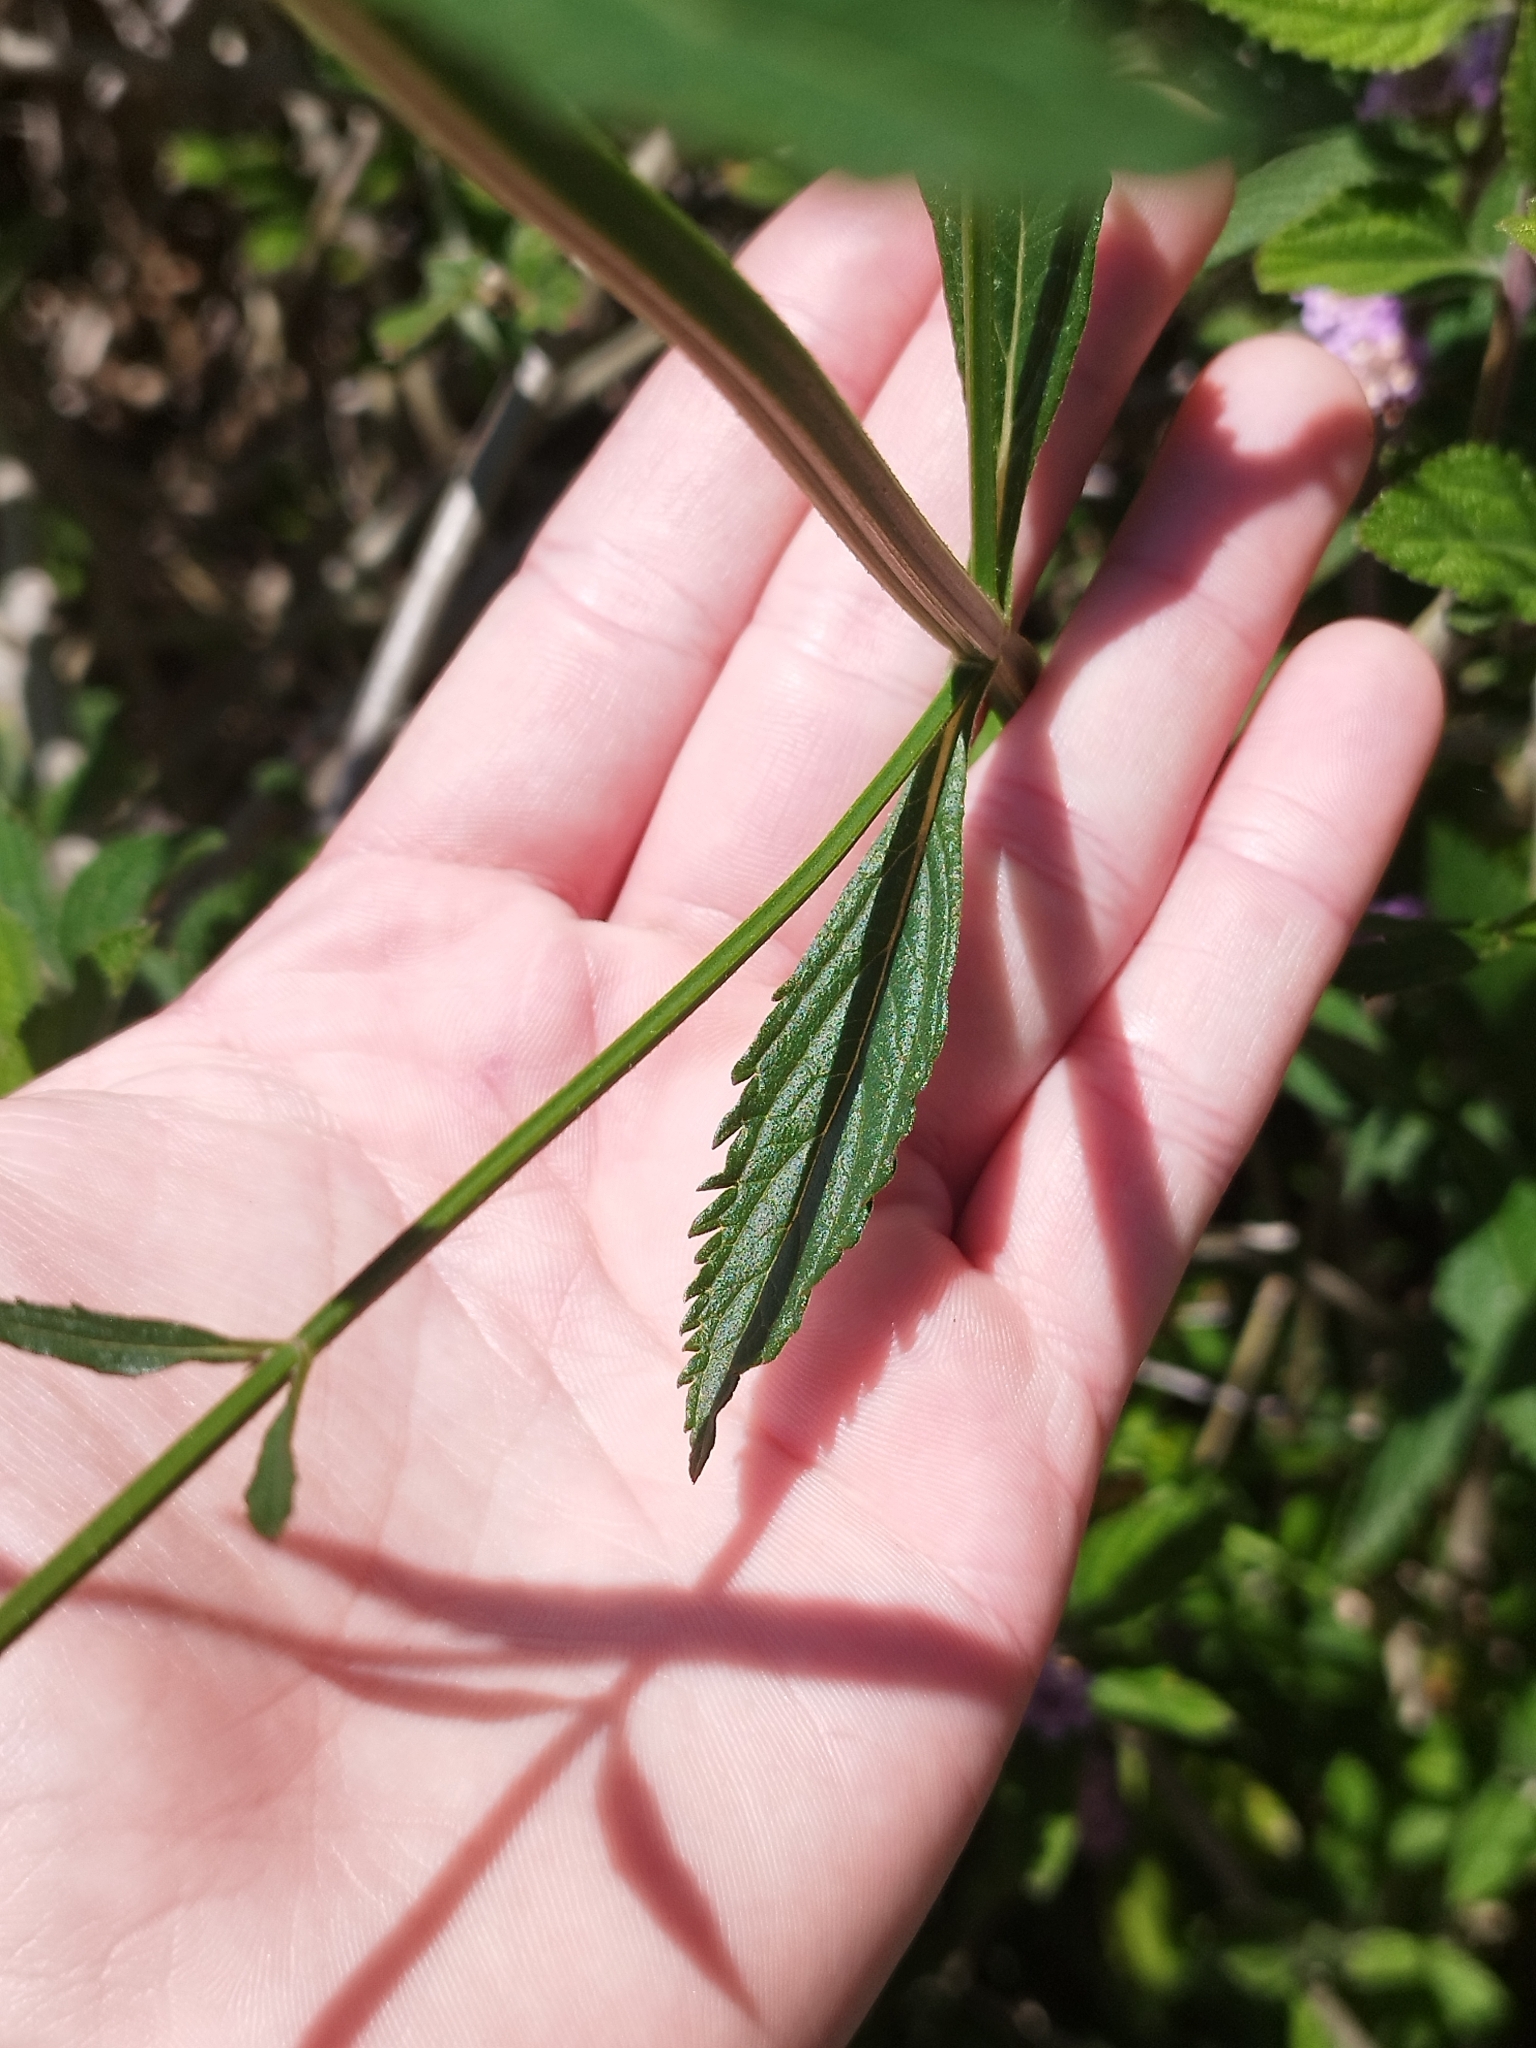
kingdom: Plantae
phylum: Tracheophyta
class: Magnoliopsida
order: Lamiales
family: Verbenaceae
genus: Verbena
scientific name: Verbena bonariensis
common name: Purpletop vervain
